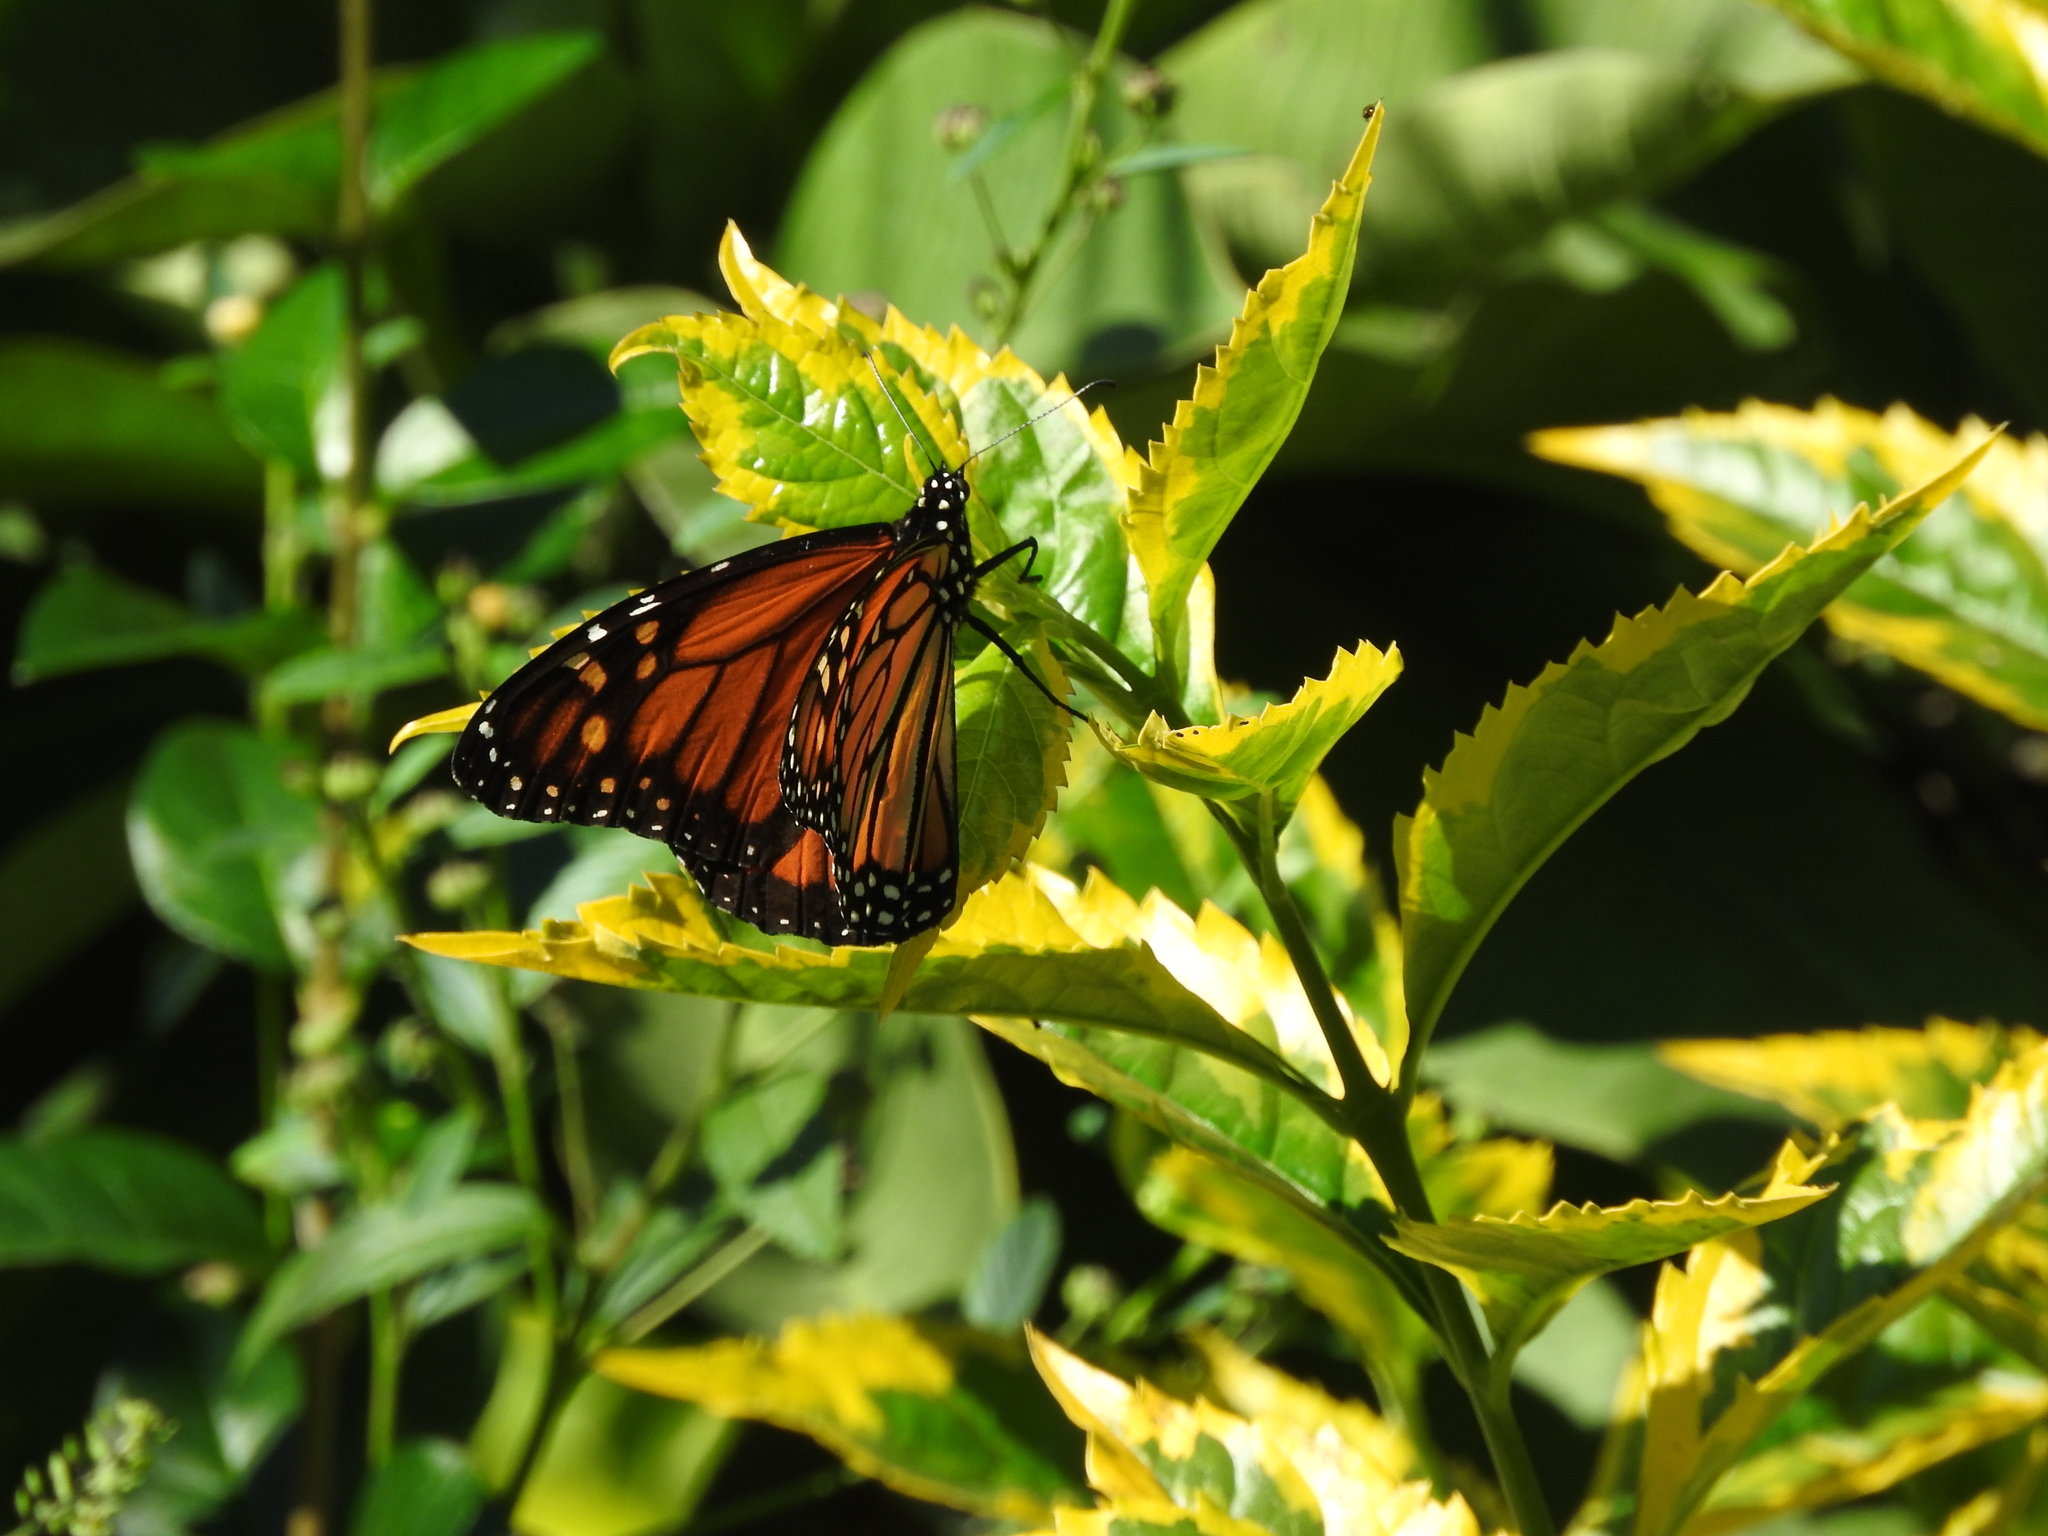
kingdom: Animalia
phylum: Arthropoda
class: Insecta
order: Lepidoptera
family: Nymphalidae
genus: Danaus
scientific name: Danaus plexippus
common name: Monarch
